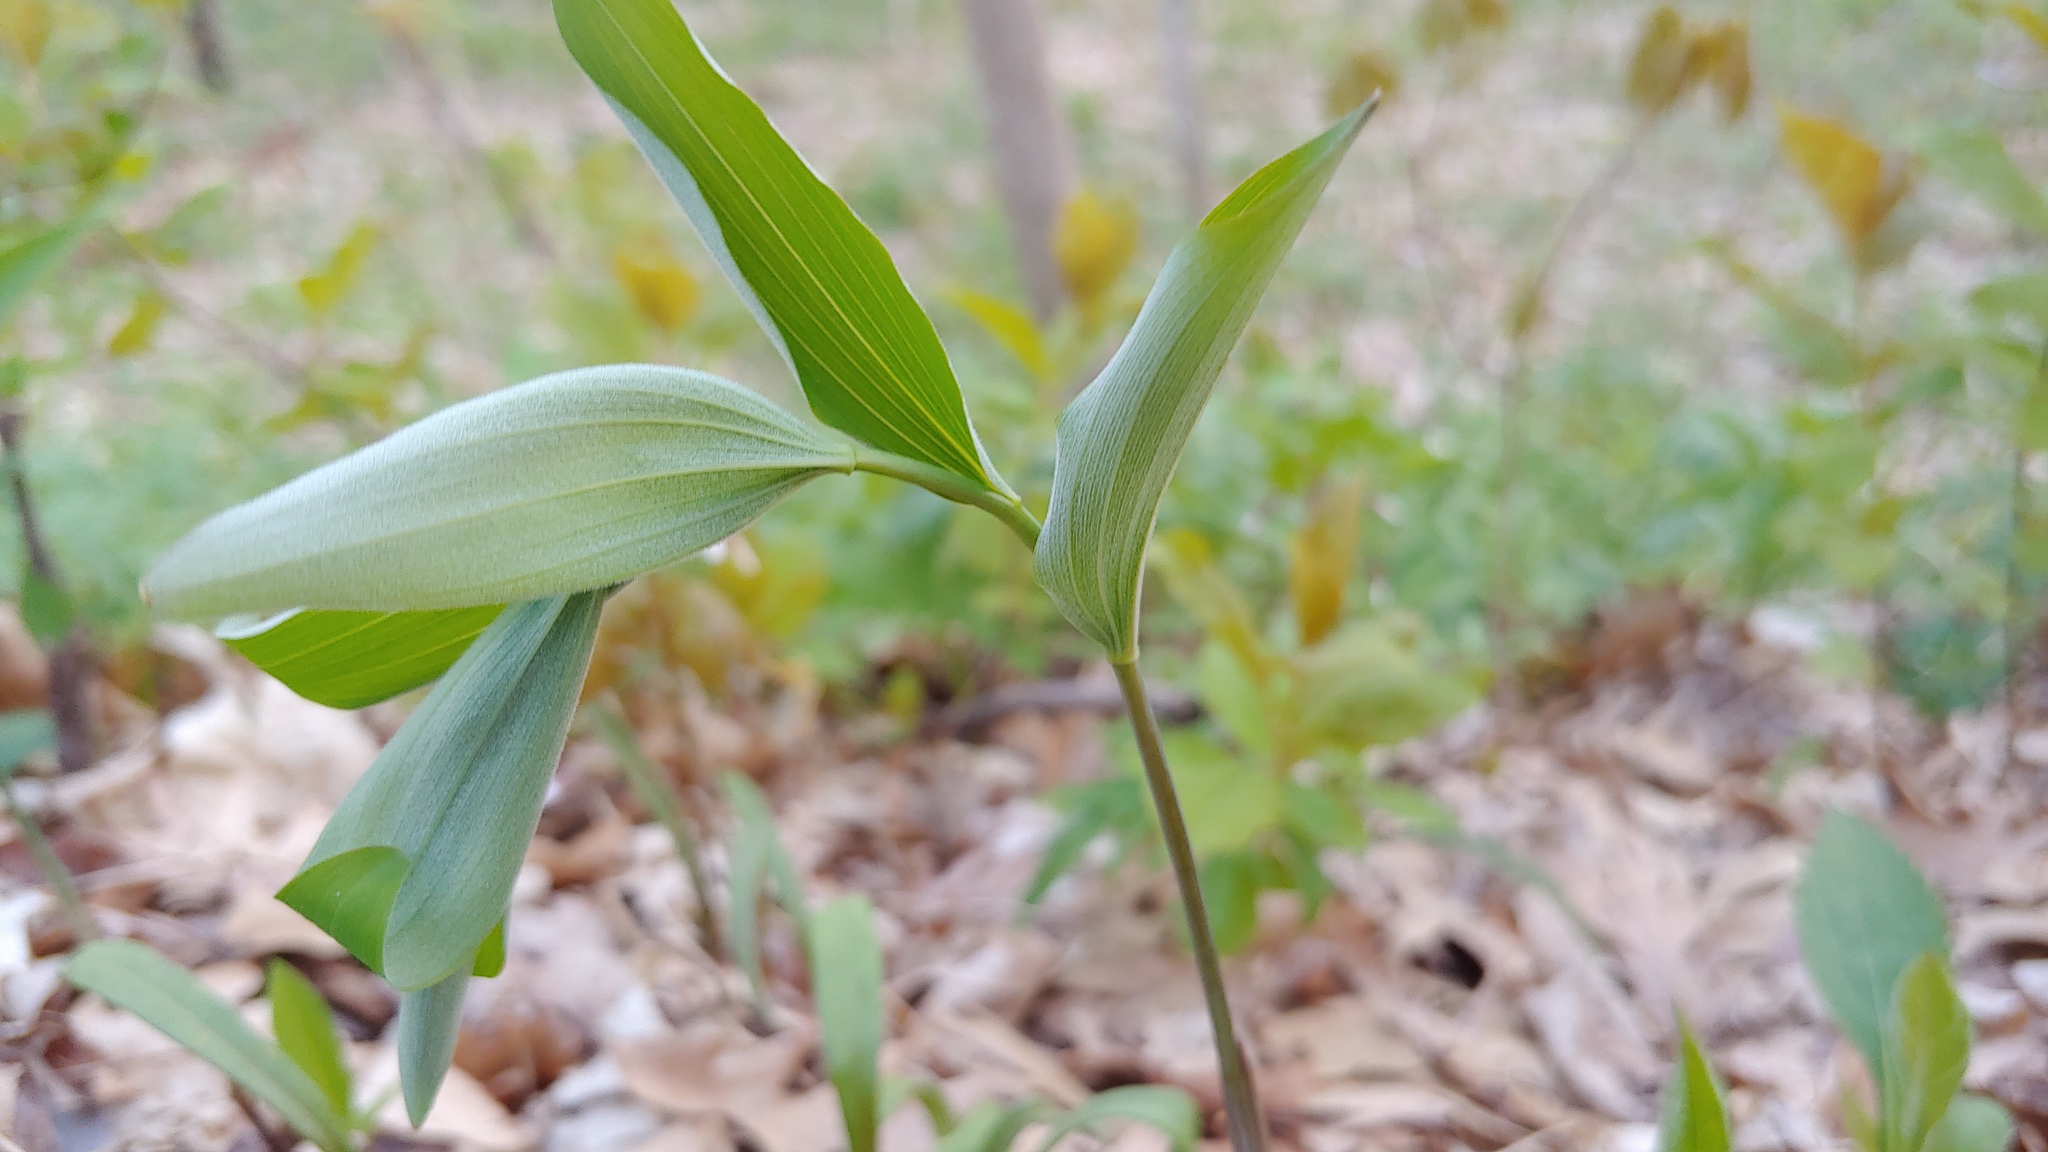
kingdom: Plantae
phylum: Tracheophyta
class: Liliopsida
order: Asparagales
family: Asparagaceae
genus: Polygonatum
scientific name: Polygonatum pubescens
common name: Downy solomon's seal
